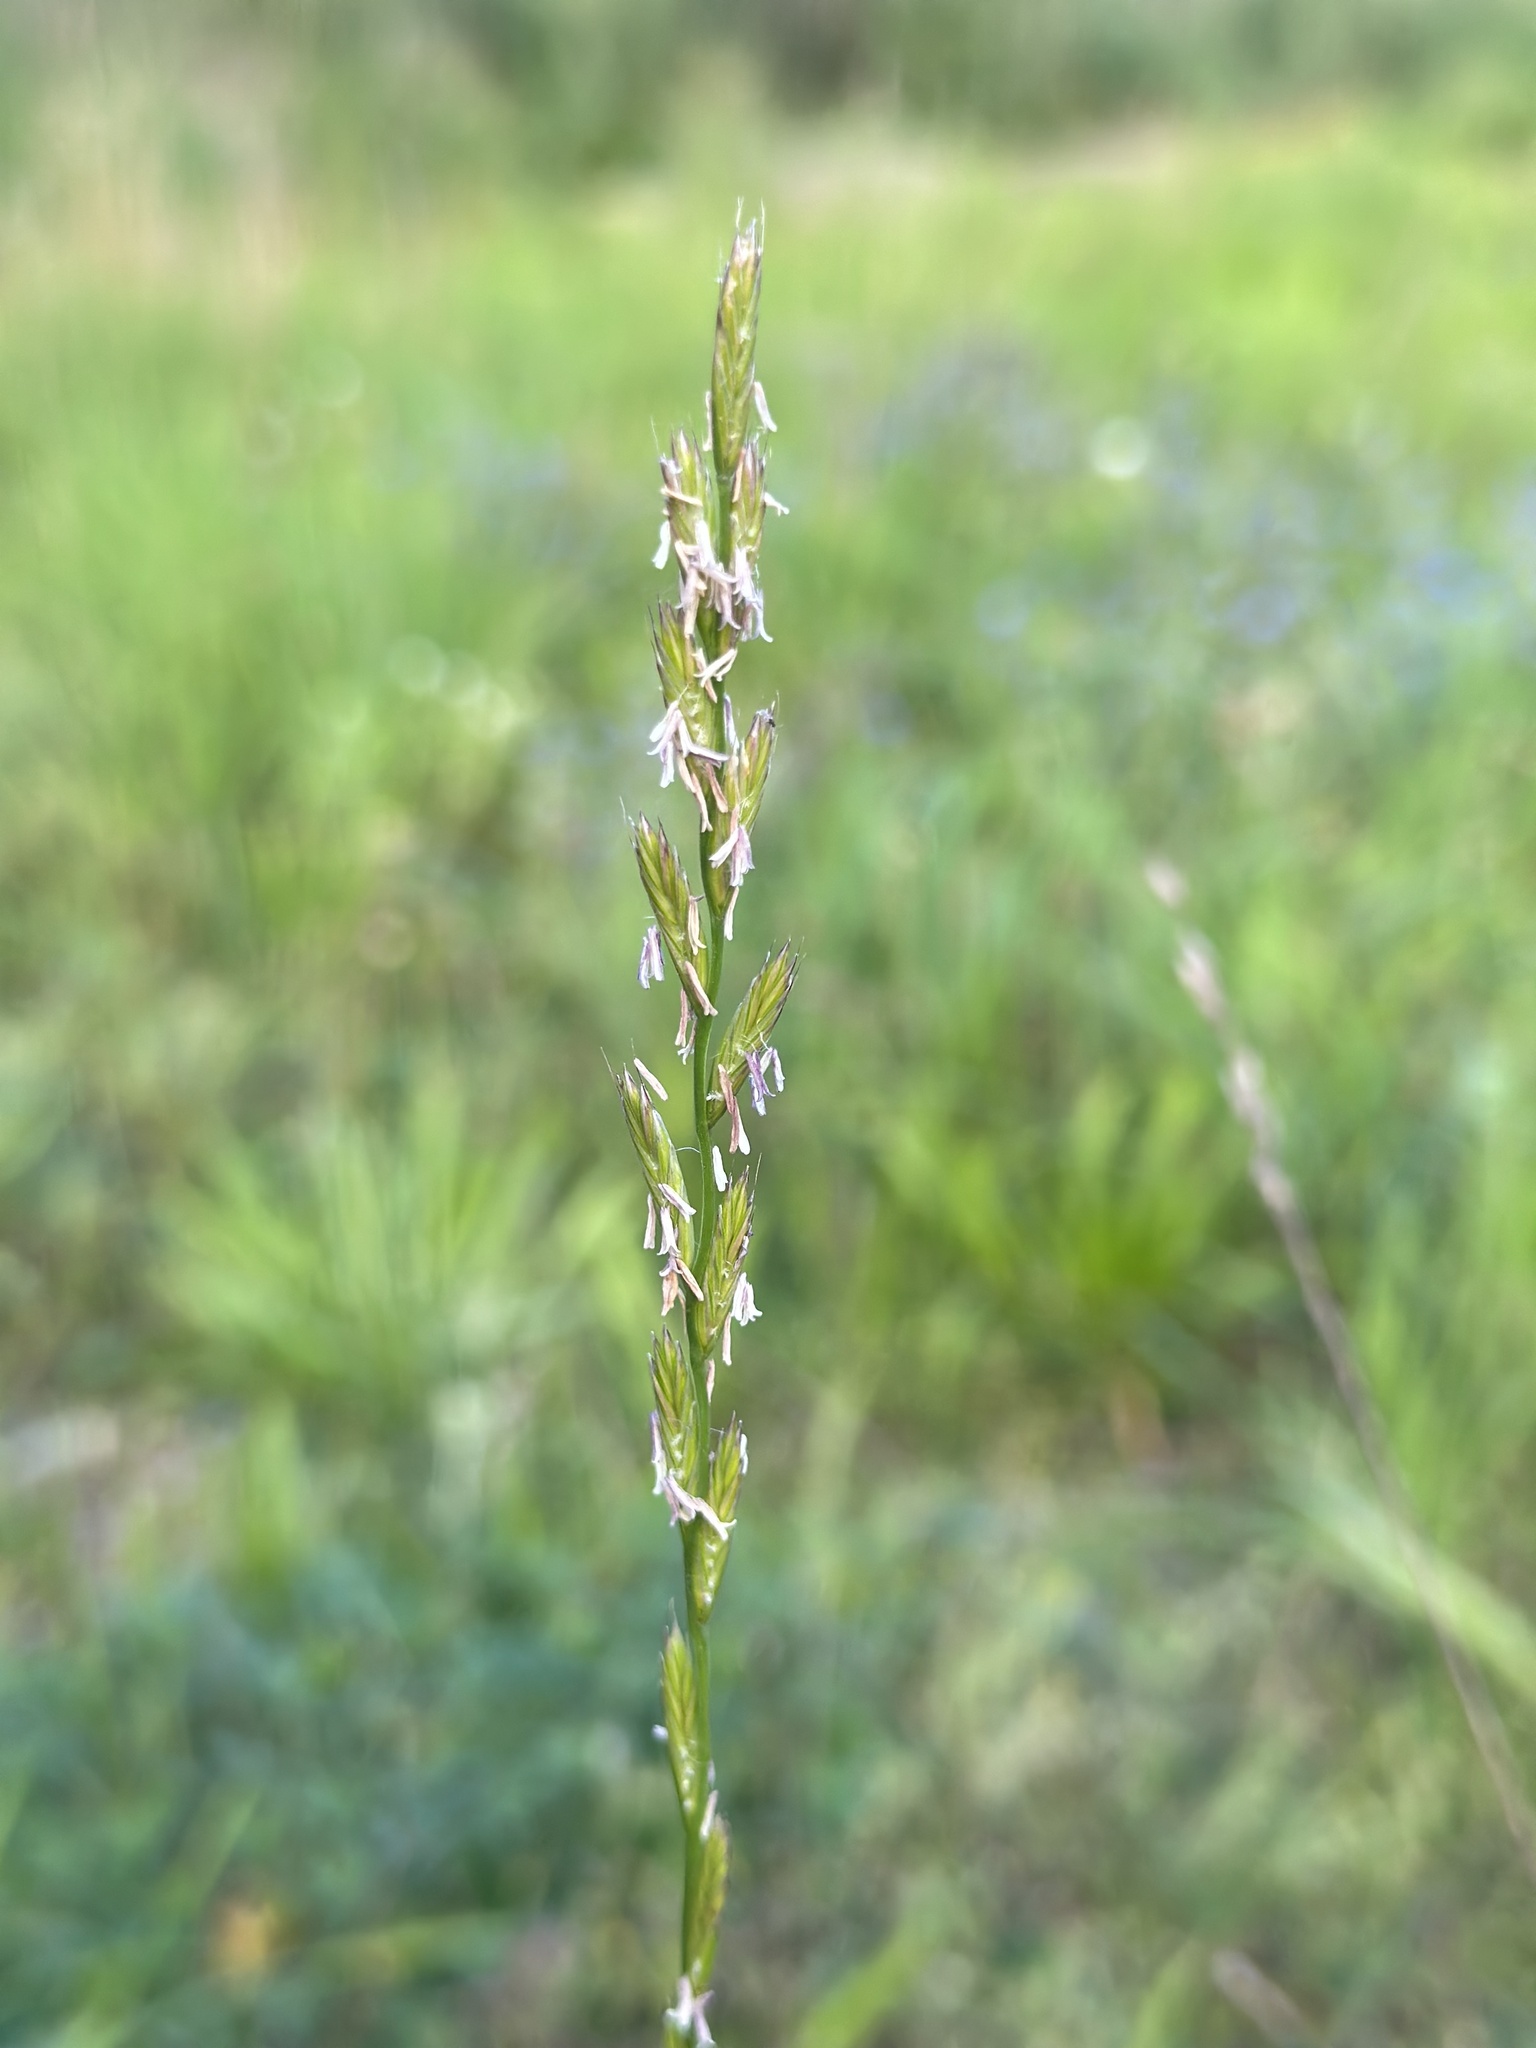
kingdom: Plantae
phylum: Tracheophyta
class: Liliopsida
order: Poales
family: Poaceae
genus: Lolium
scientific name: Lolium perenne
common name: Perennial ryegrass
